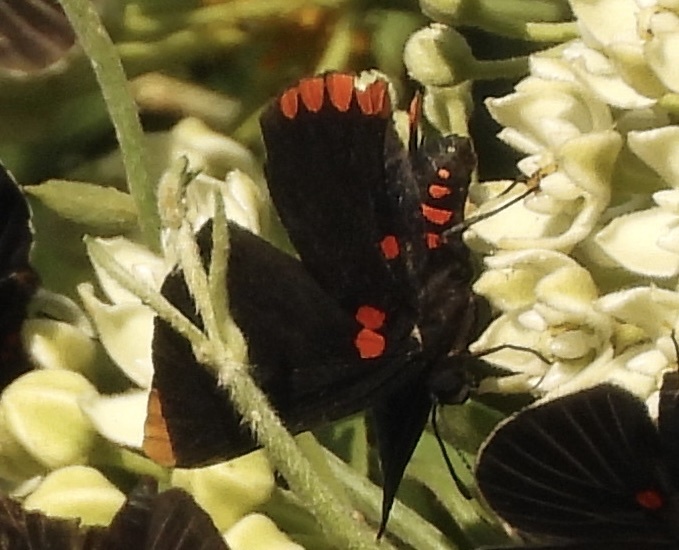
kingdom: Animalia
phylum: Arthropoda
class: Insecta
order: Lepidoptera
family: Lycaenidae
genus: Melanis
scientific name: Melanis pixe
